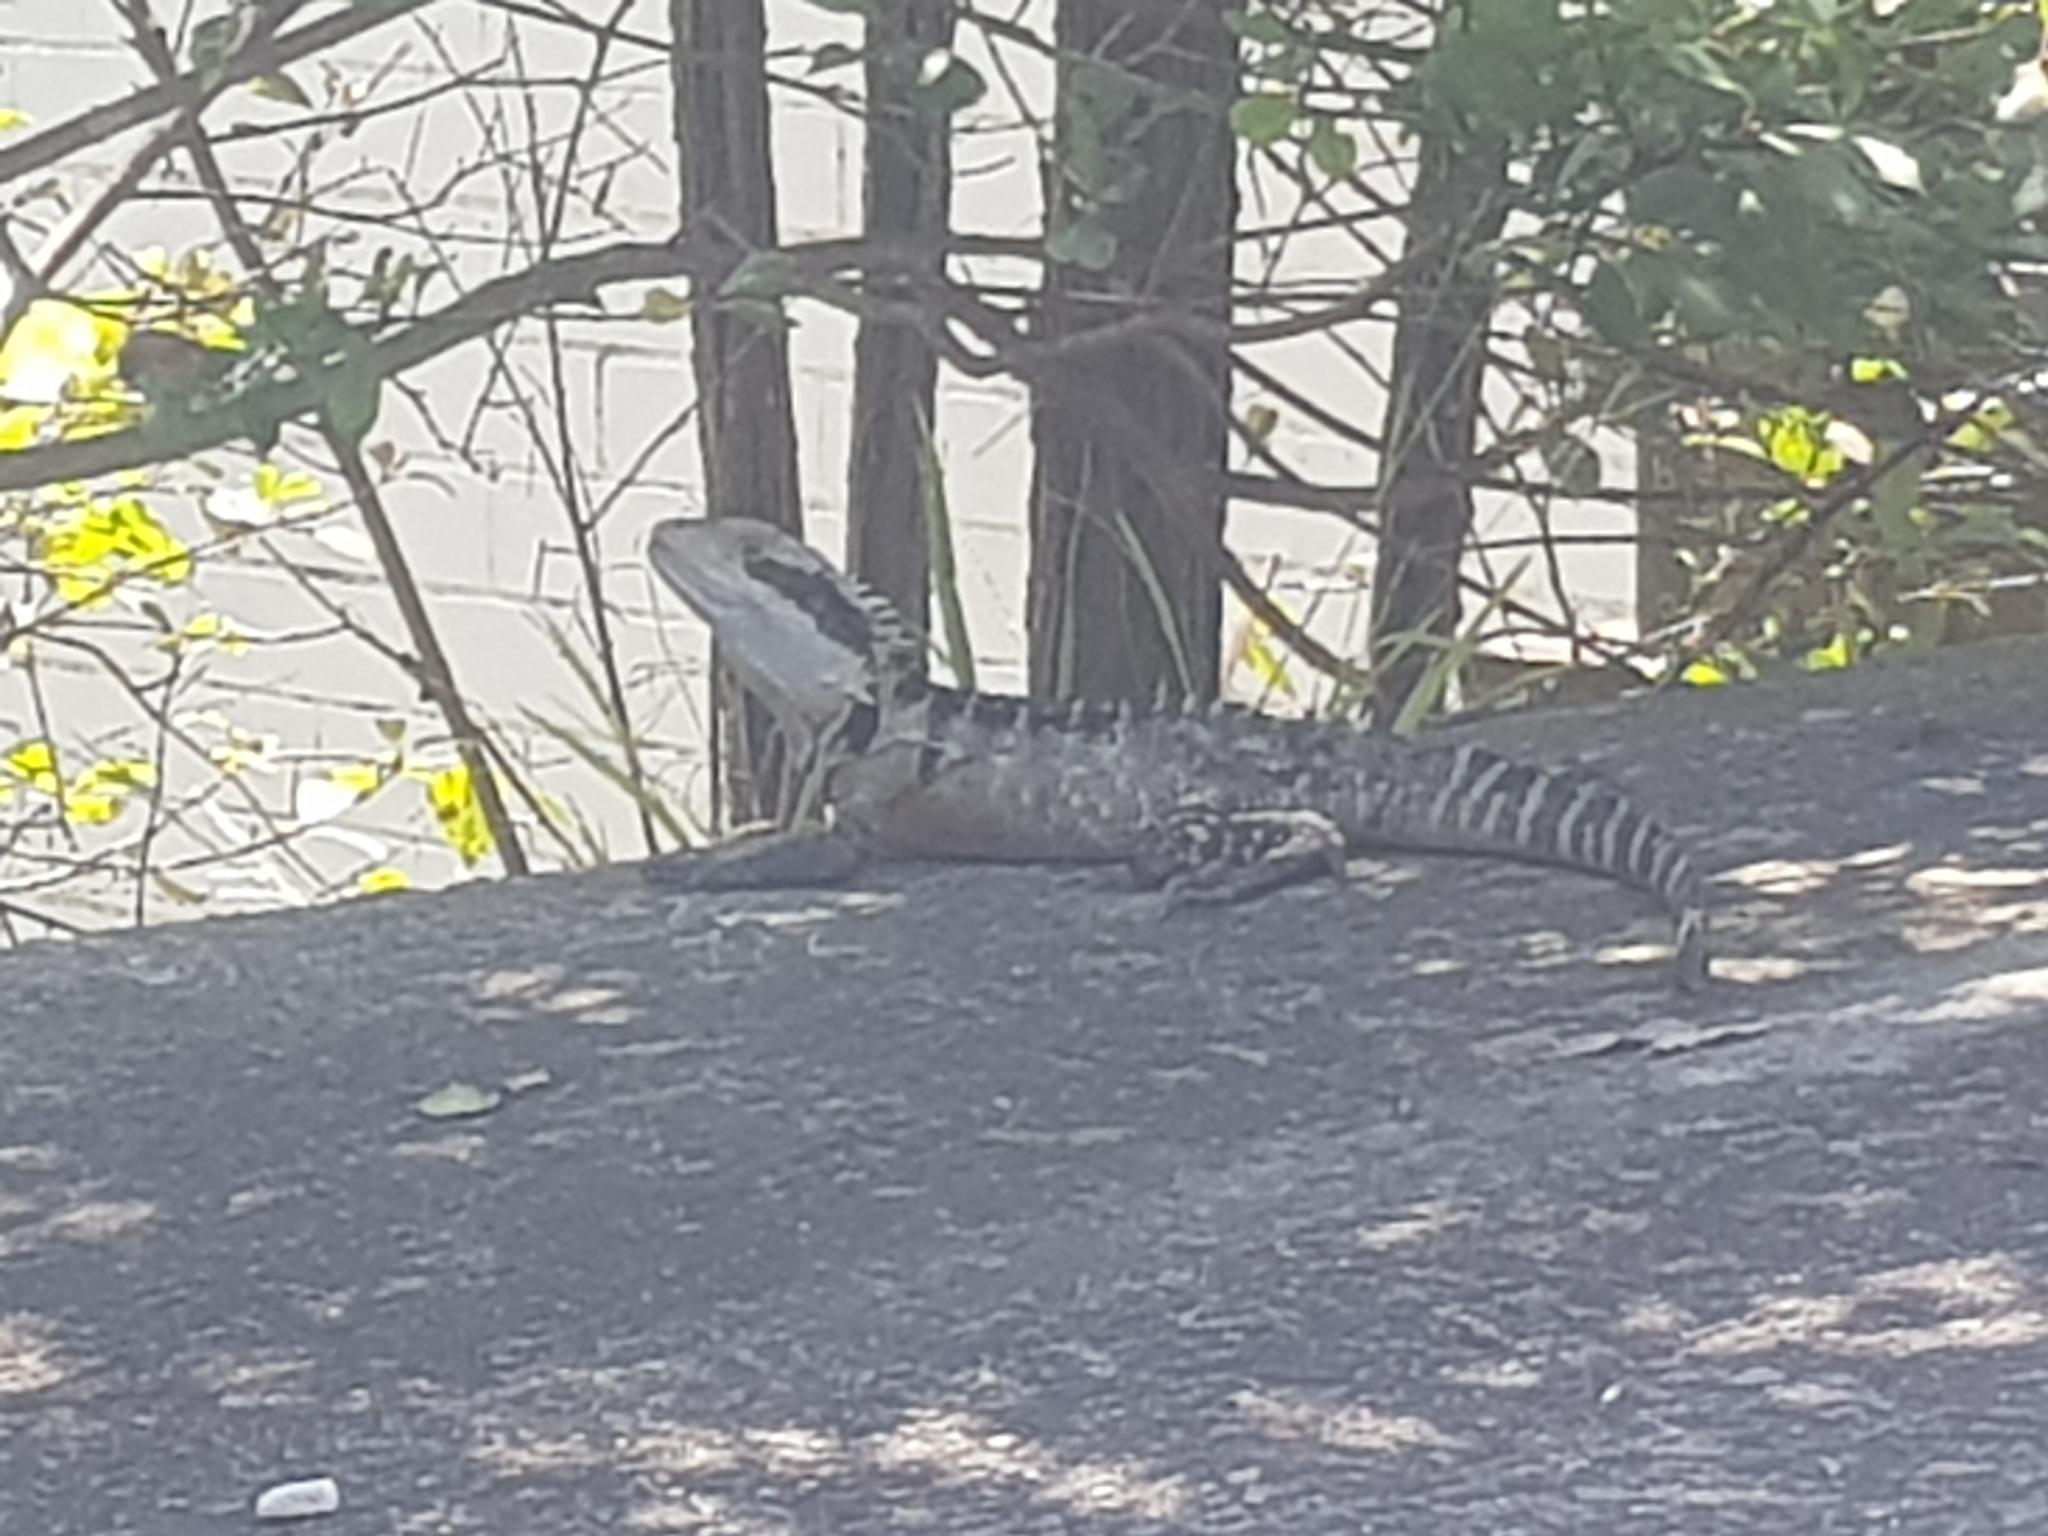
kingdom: Animalia
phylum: Chordata
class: Squamata
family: Agamidae
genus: Intellagama
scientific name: Intellagama lesueurii
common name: Eastern water dragon
